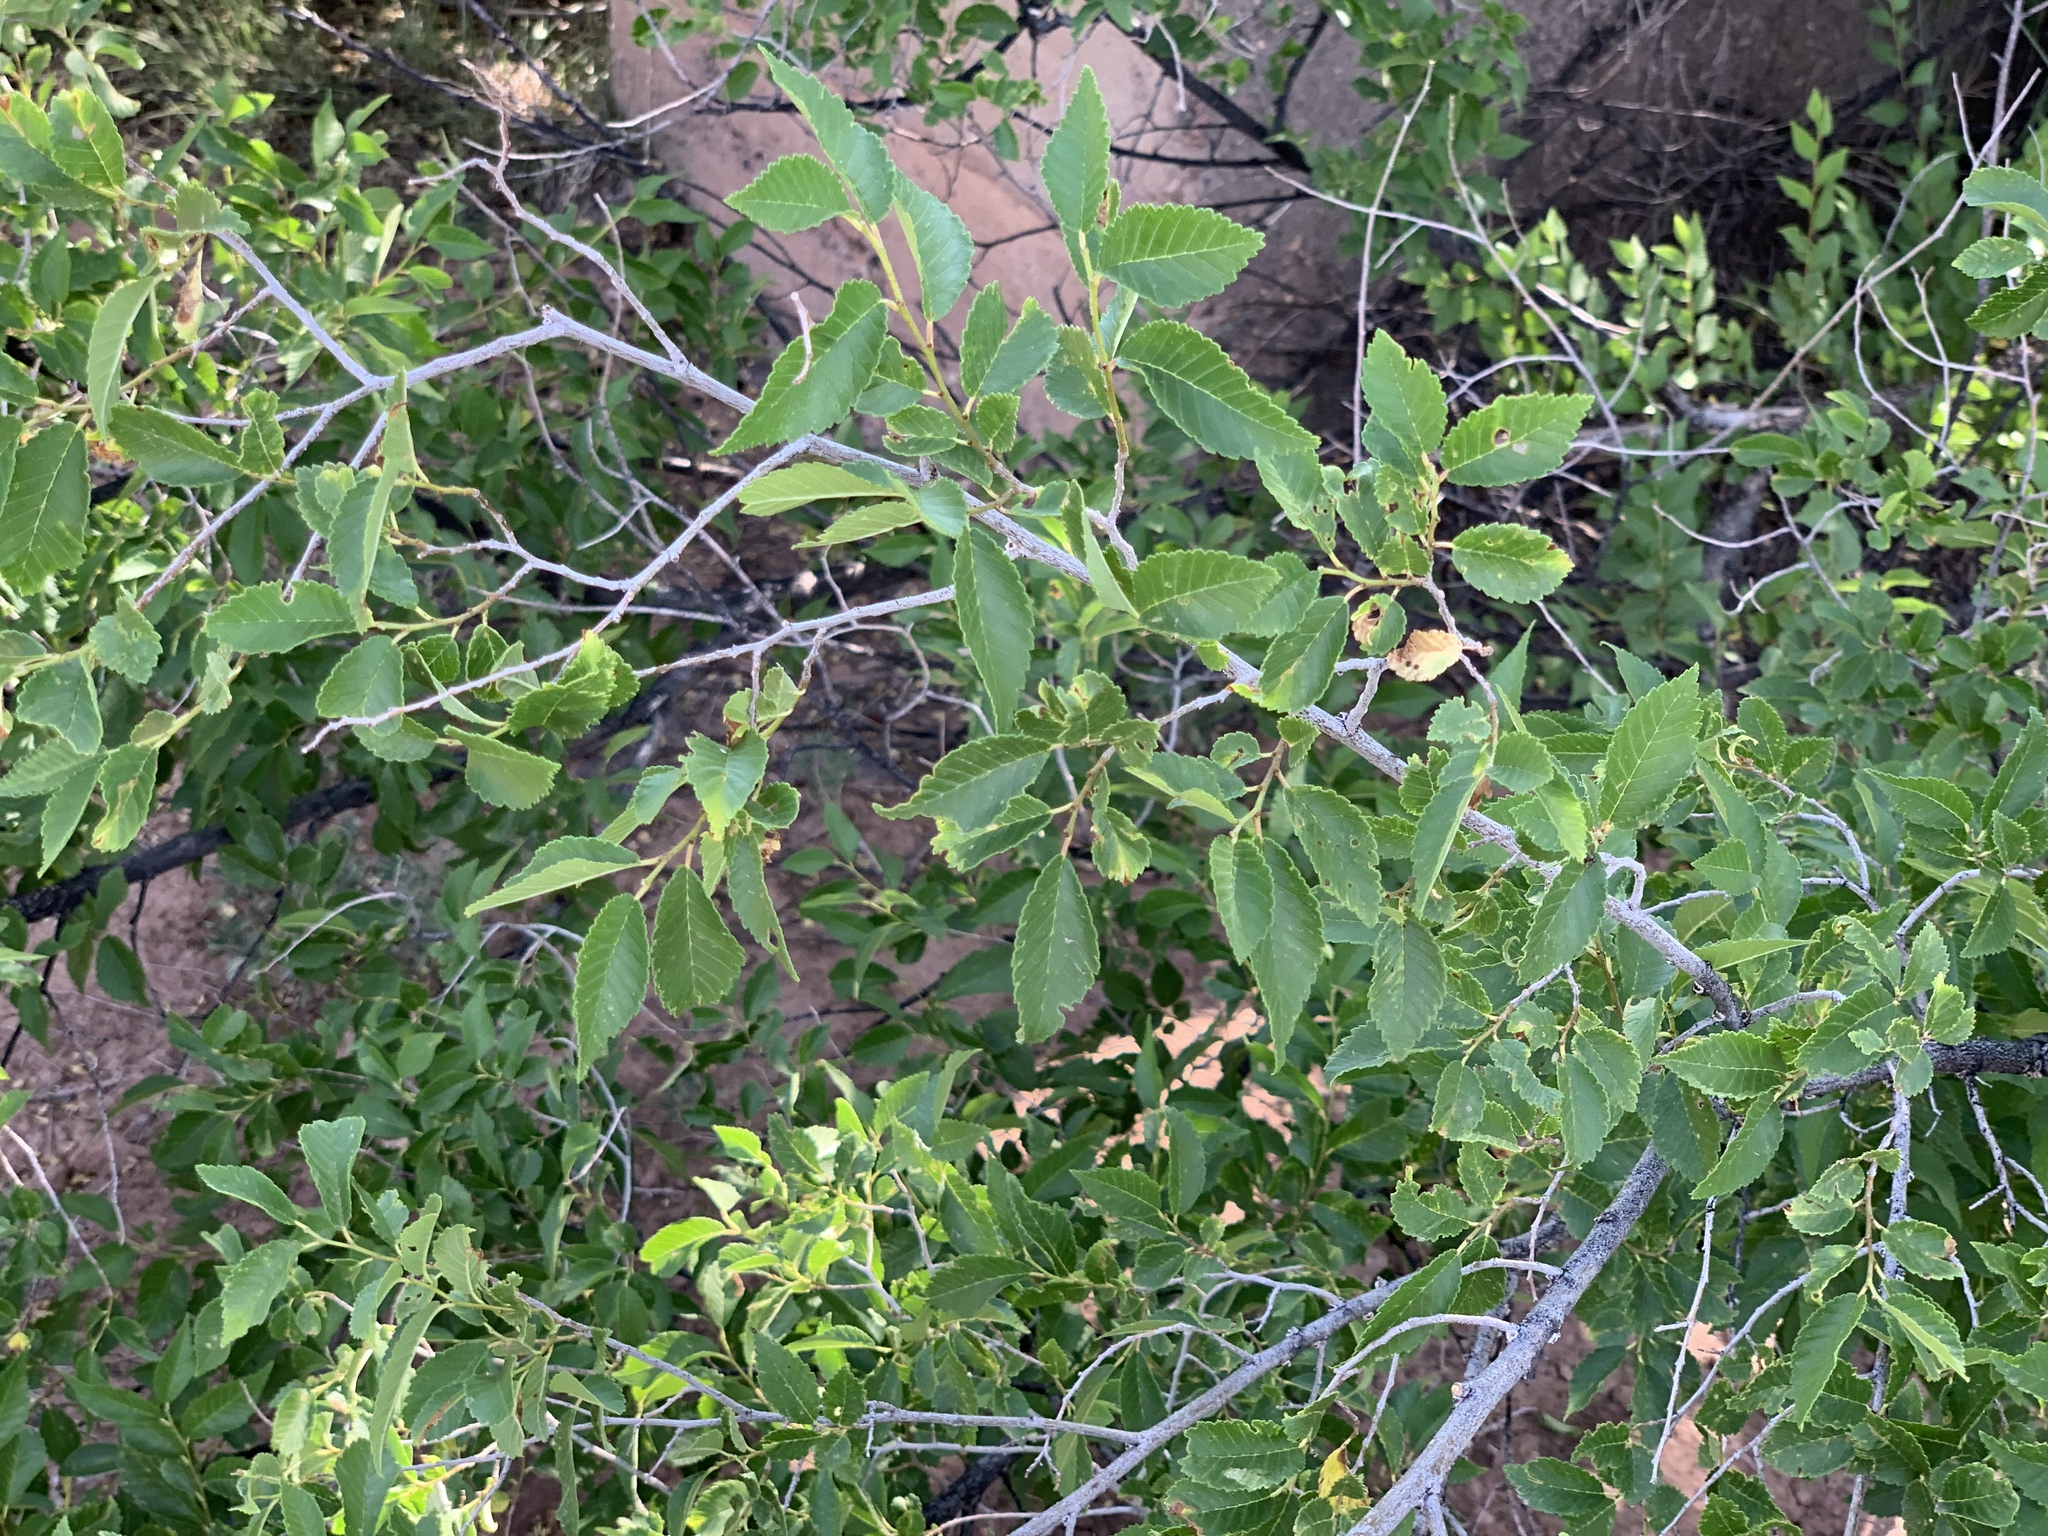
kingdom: Plantae
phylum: Tracheophyta
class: Magnoliopsida
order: Rosales
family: Ulmaceae
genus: Ulmus
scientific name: Ulmus pumila
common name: Siberian elm
